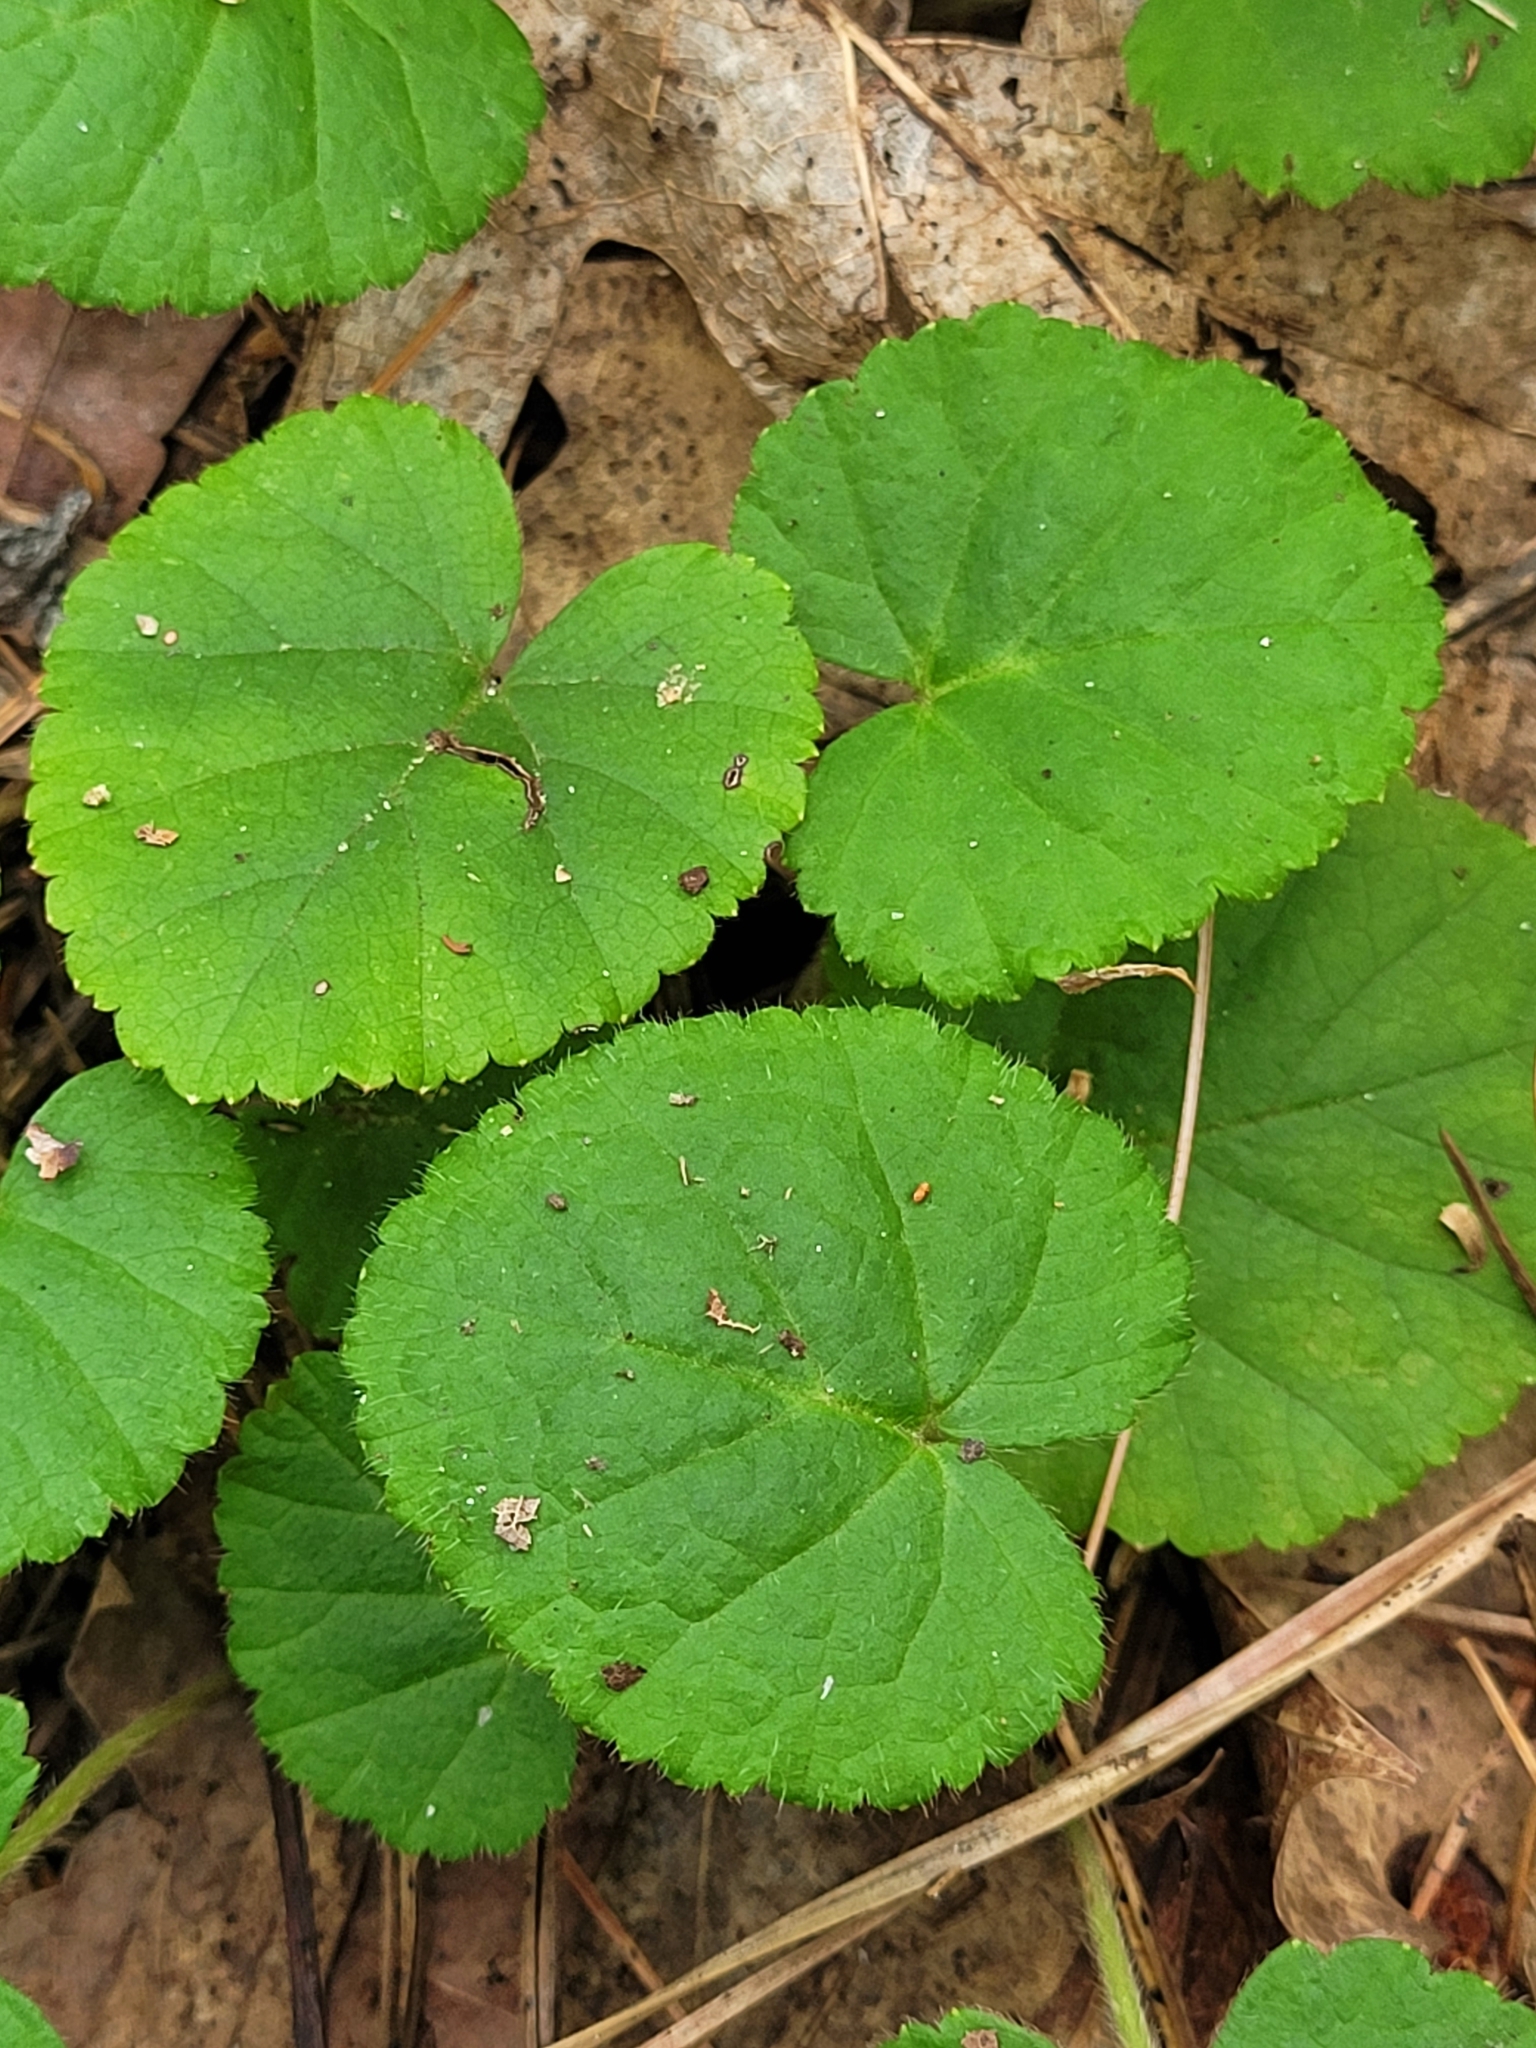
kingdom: Plantae
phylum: Tracheophyta
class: Magnoliopsida
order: Rosales
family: Rosaceae
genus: Dalibarda
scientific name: Dalibarda repens
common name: Dewdrop
